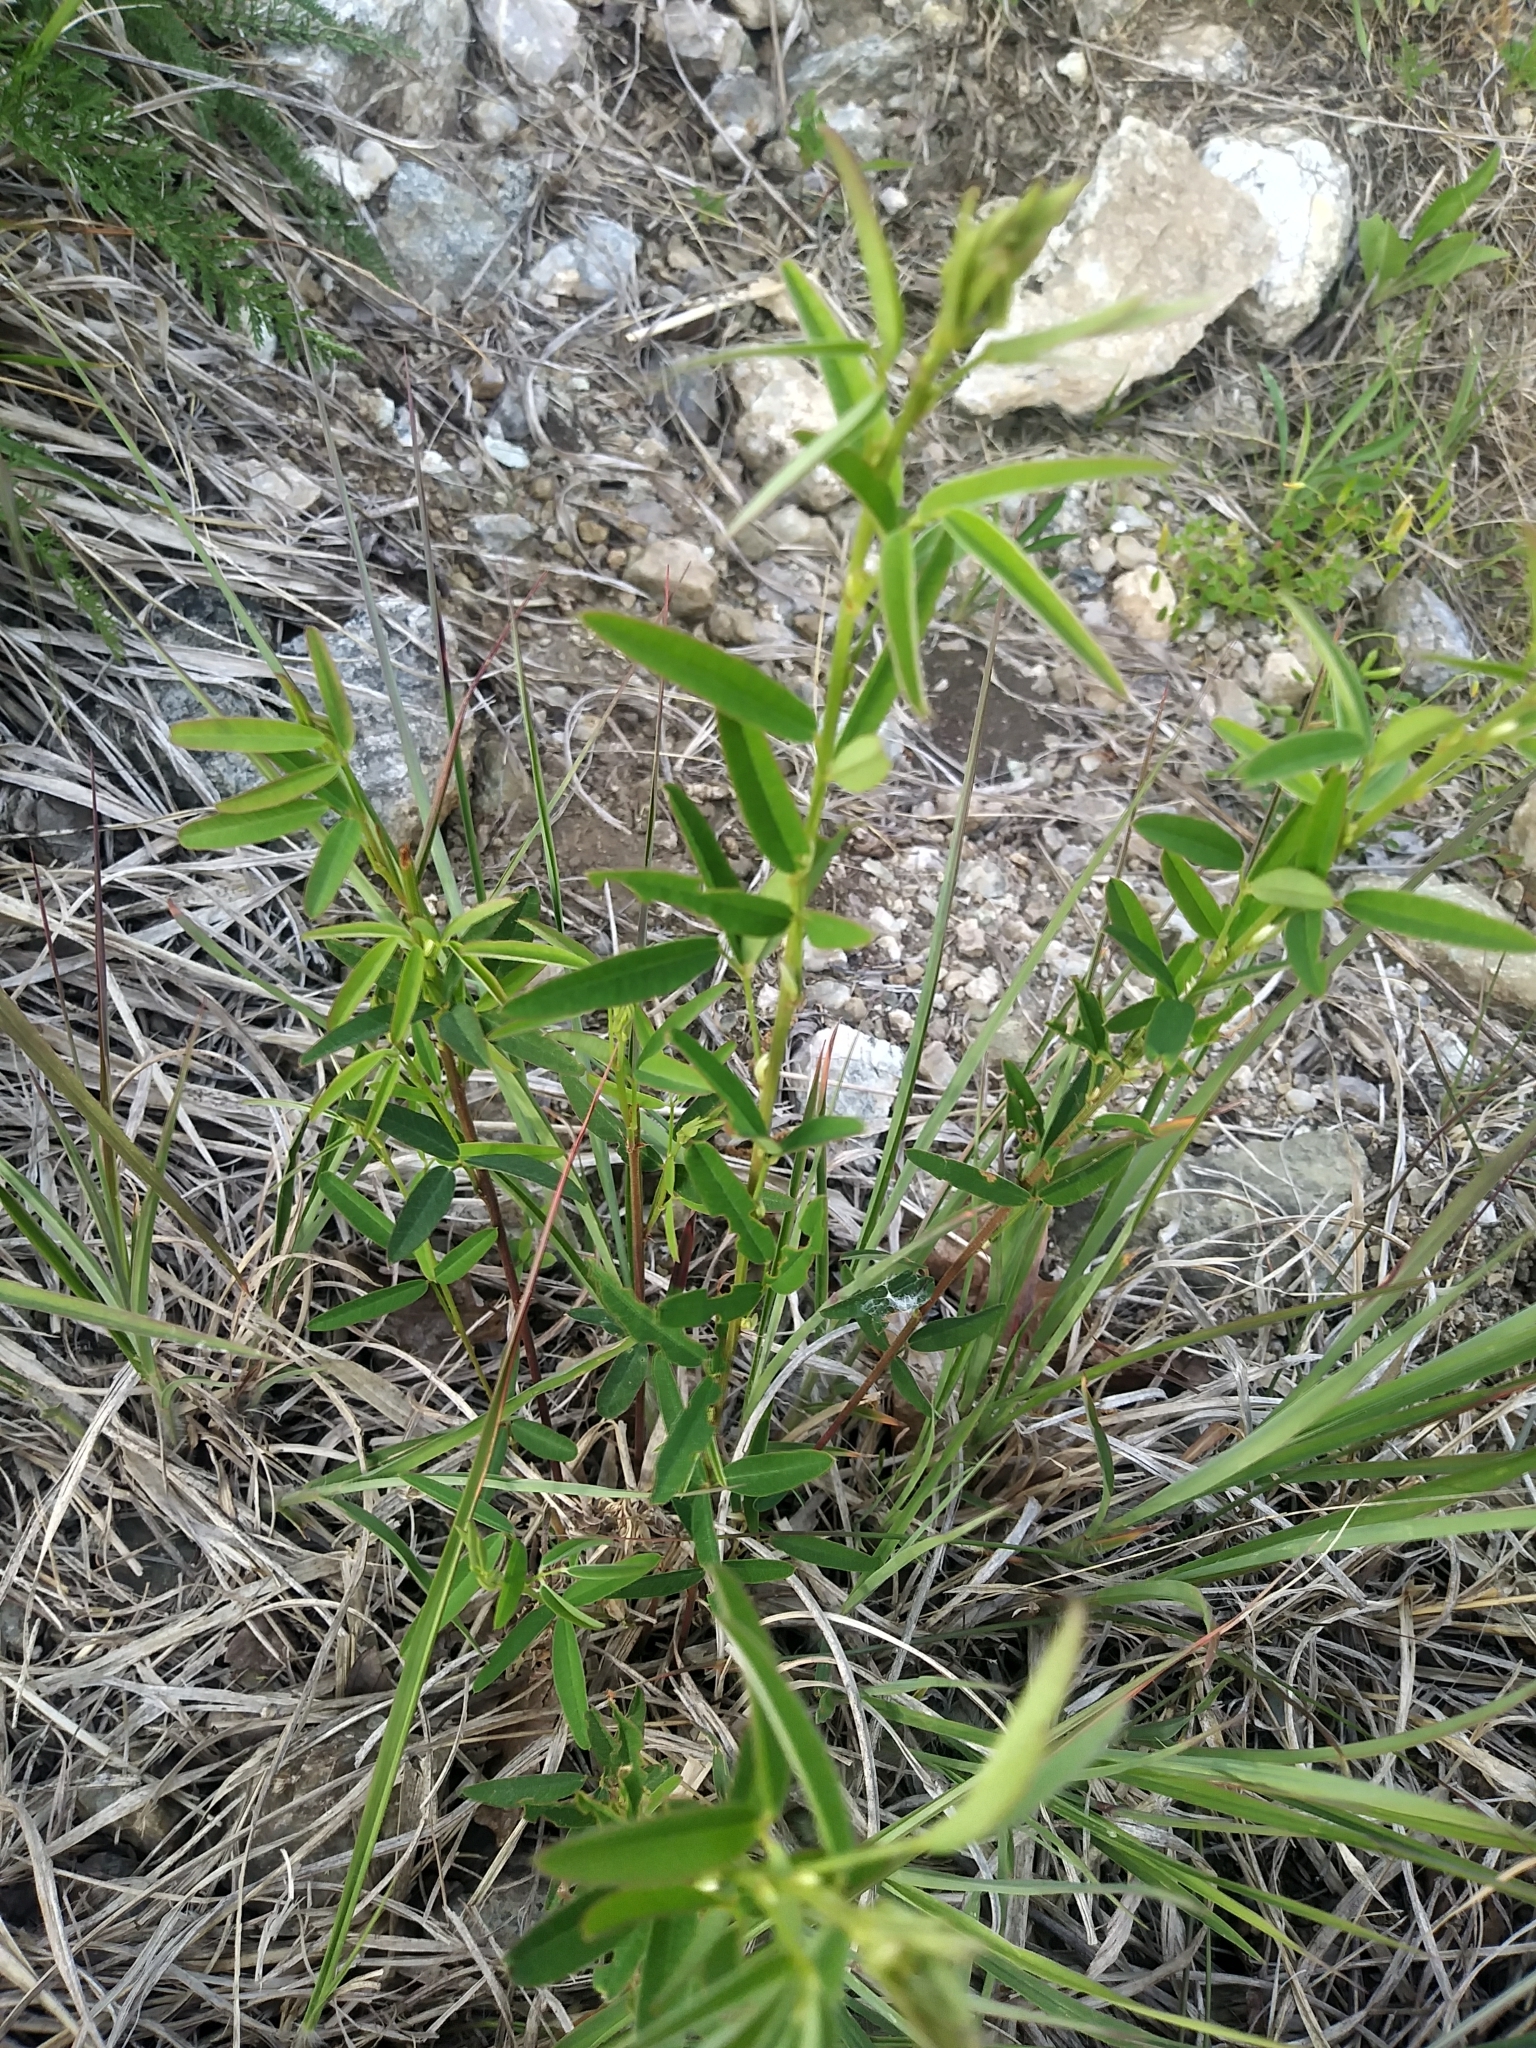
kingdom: Plantae
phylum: Tracheophyta
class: Magnoliopsida
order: Fabales
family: Fabaceae
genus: Lespedeza
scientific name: Lespedeza virginica
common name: Slender bush-clover
